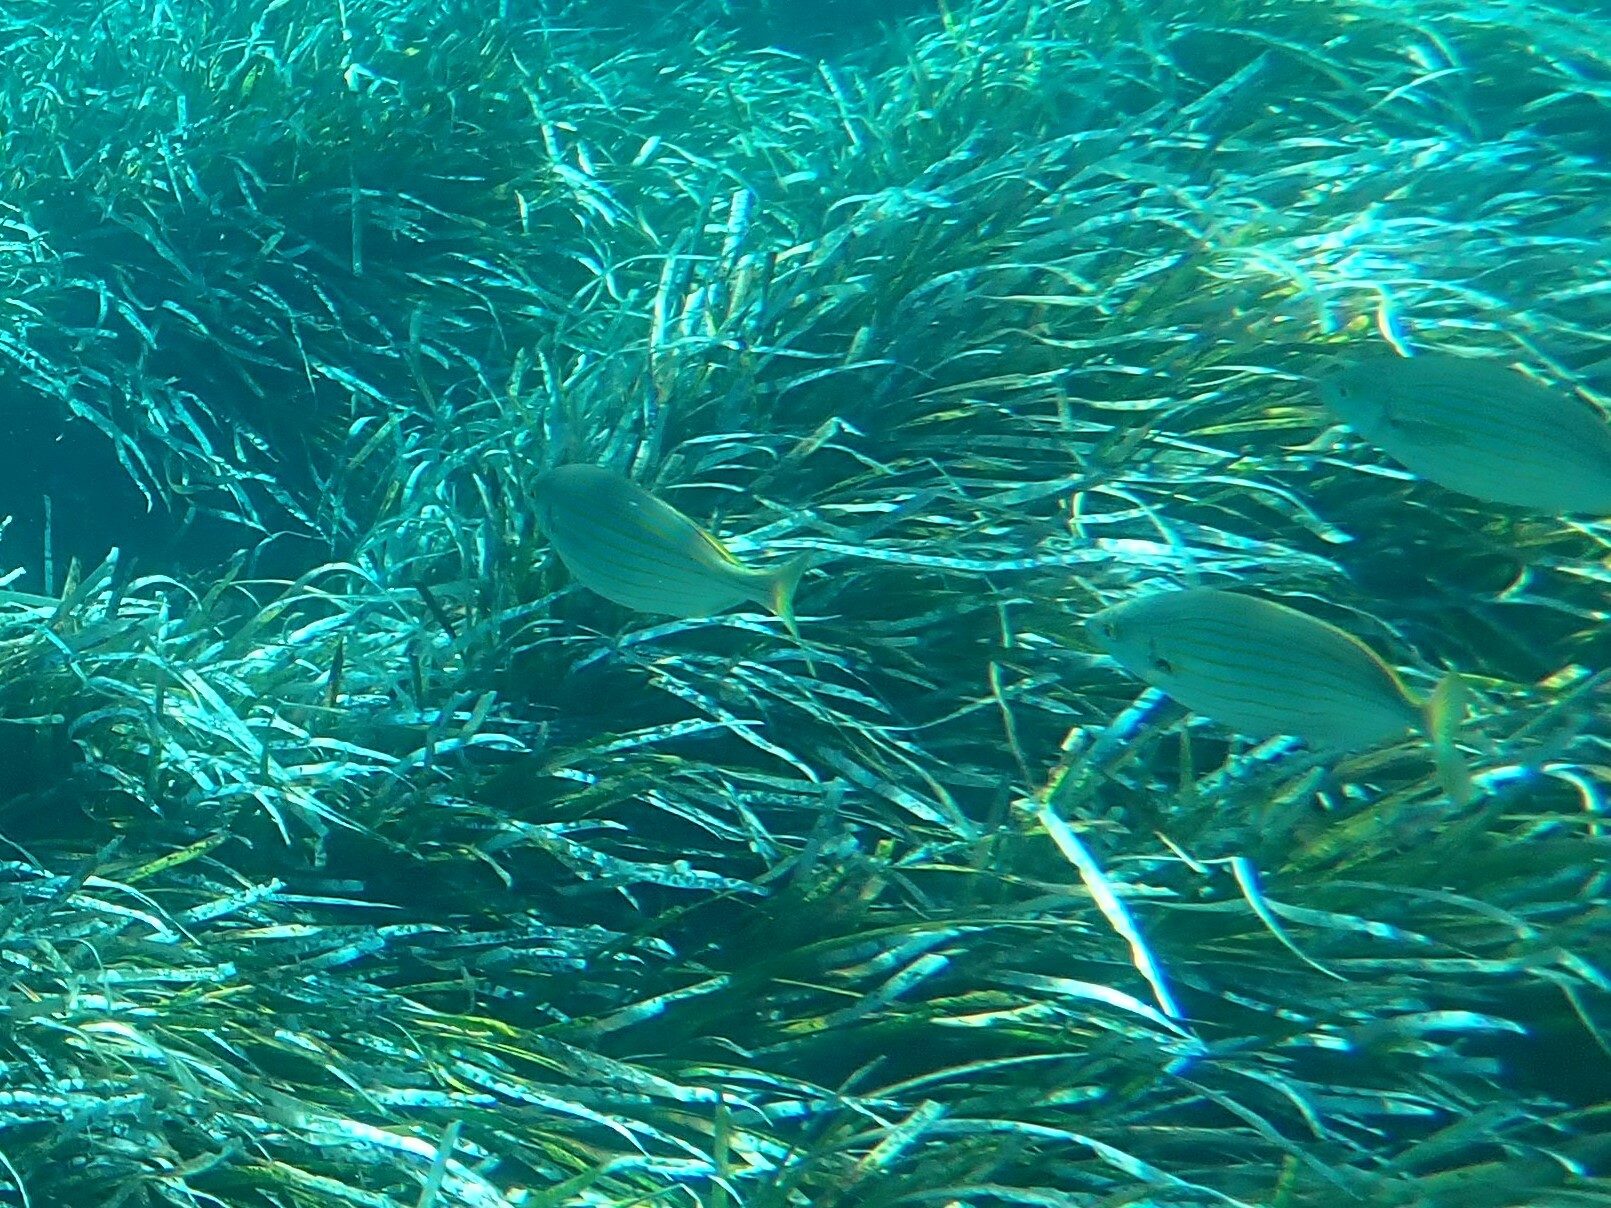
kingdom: Animalia
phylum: Chordata
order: Perciformes
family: Sparidae
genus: Sarpa
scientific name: Sarpa salpa
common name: Salema
